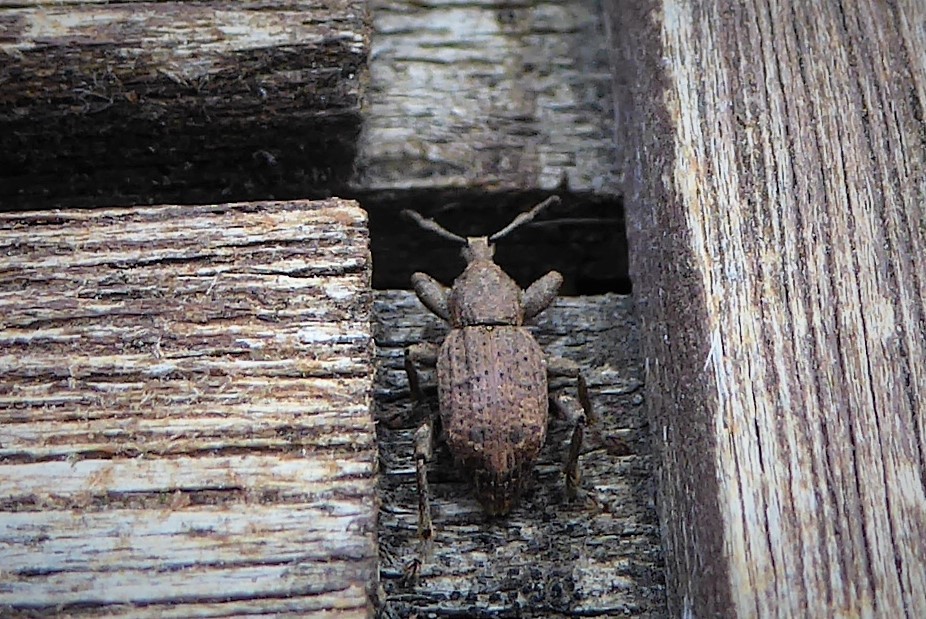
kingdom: Animalia
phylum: Arthropoda
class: Insecta
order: Coleoptera
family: Curculionidae
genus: Chalepistes
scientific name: Chalepistes rubidus
